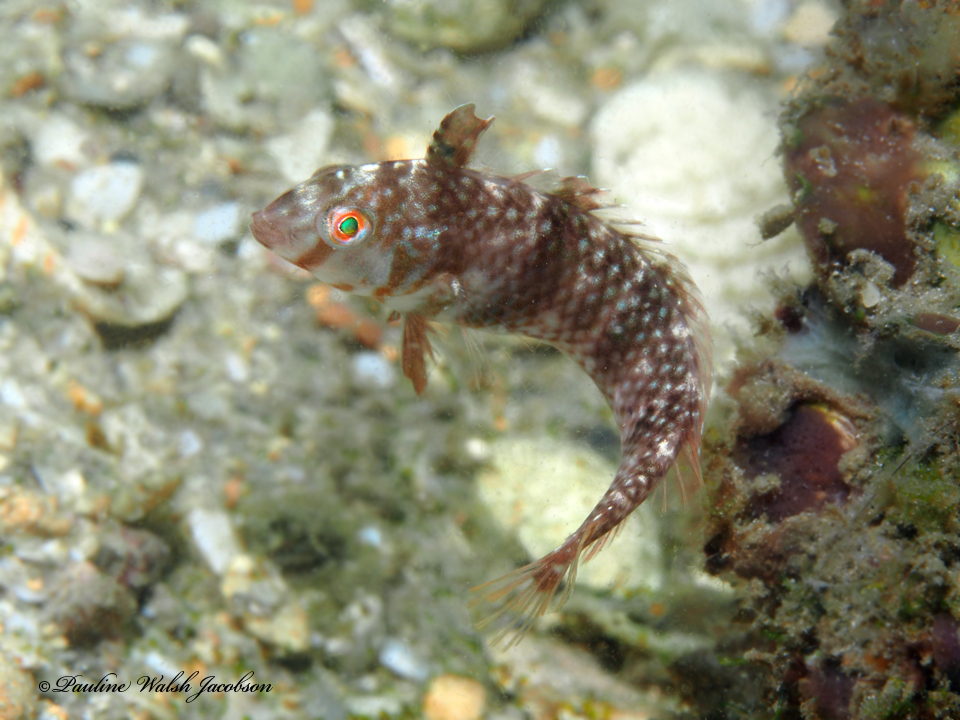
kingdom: Animalia
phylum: Chordata
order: Perciformes
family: Labridae
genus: Xyrichtys
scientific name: Xyrichtys splendens
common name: Green razorfish
